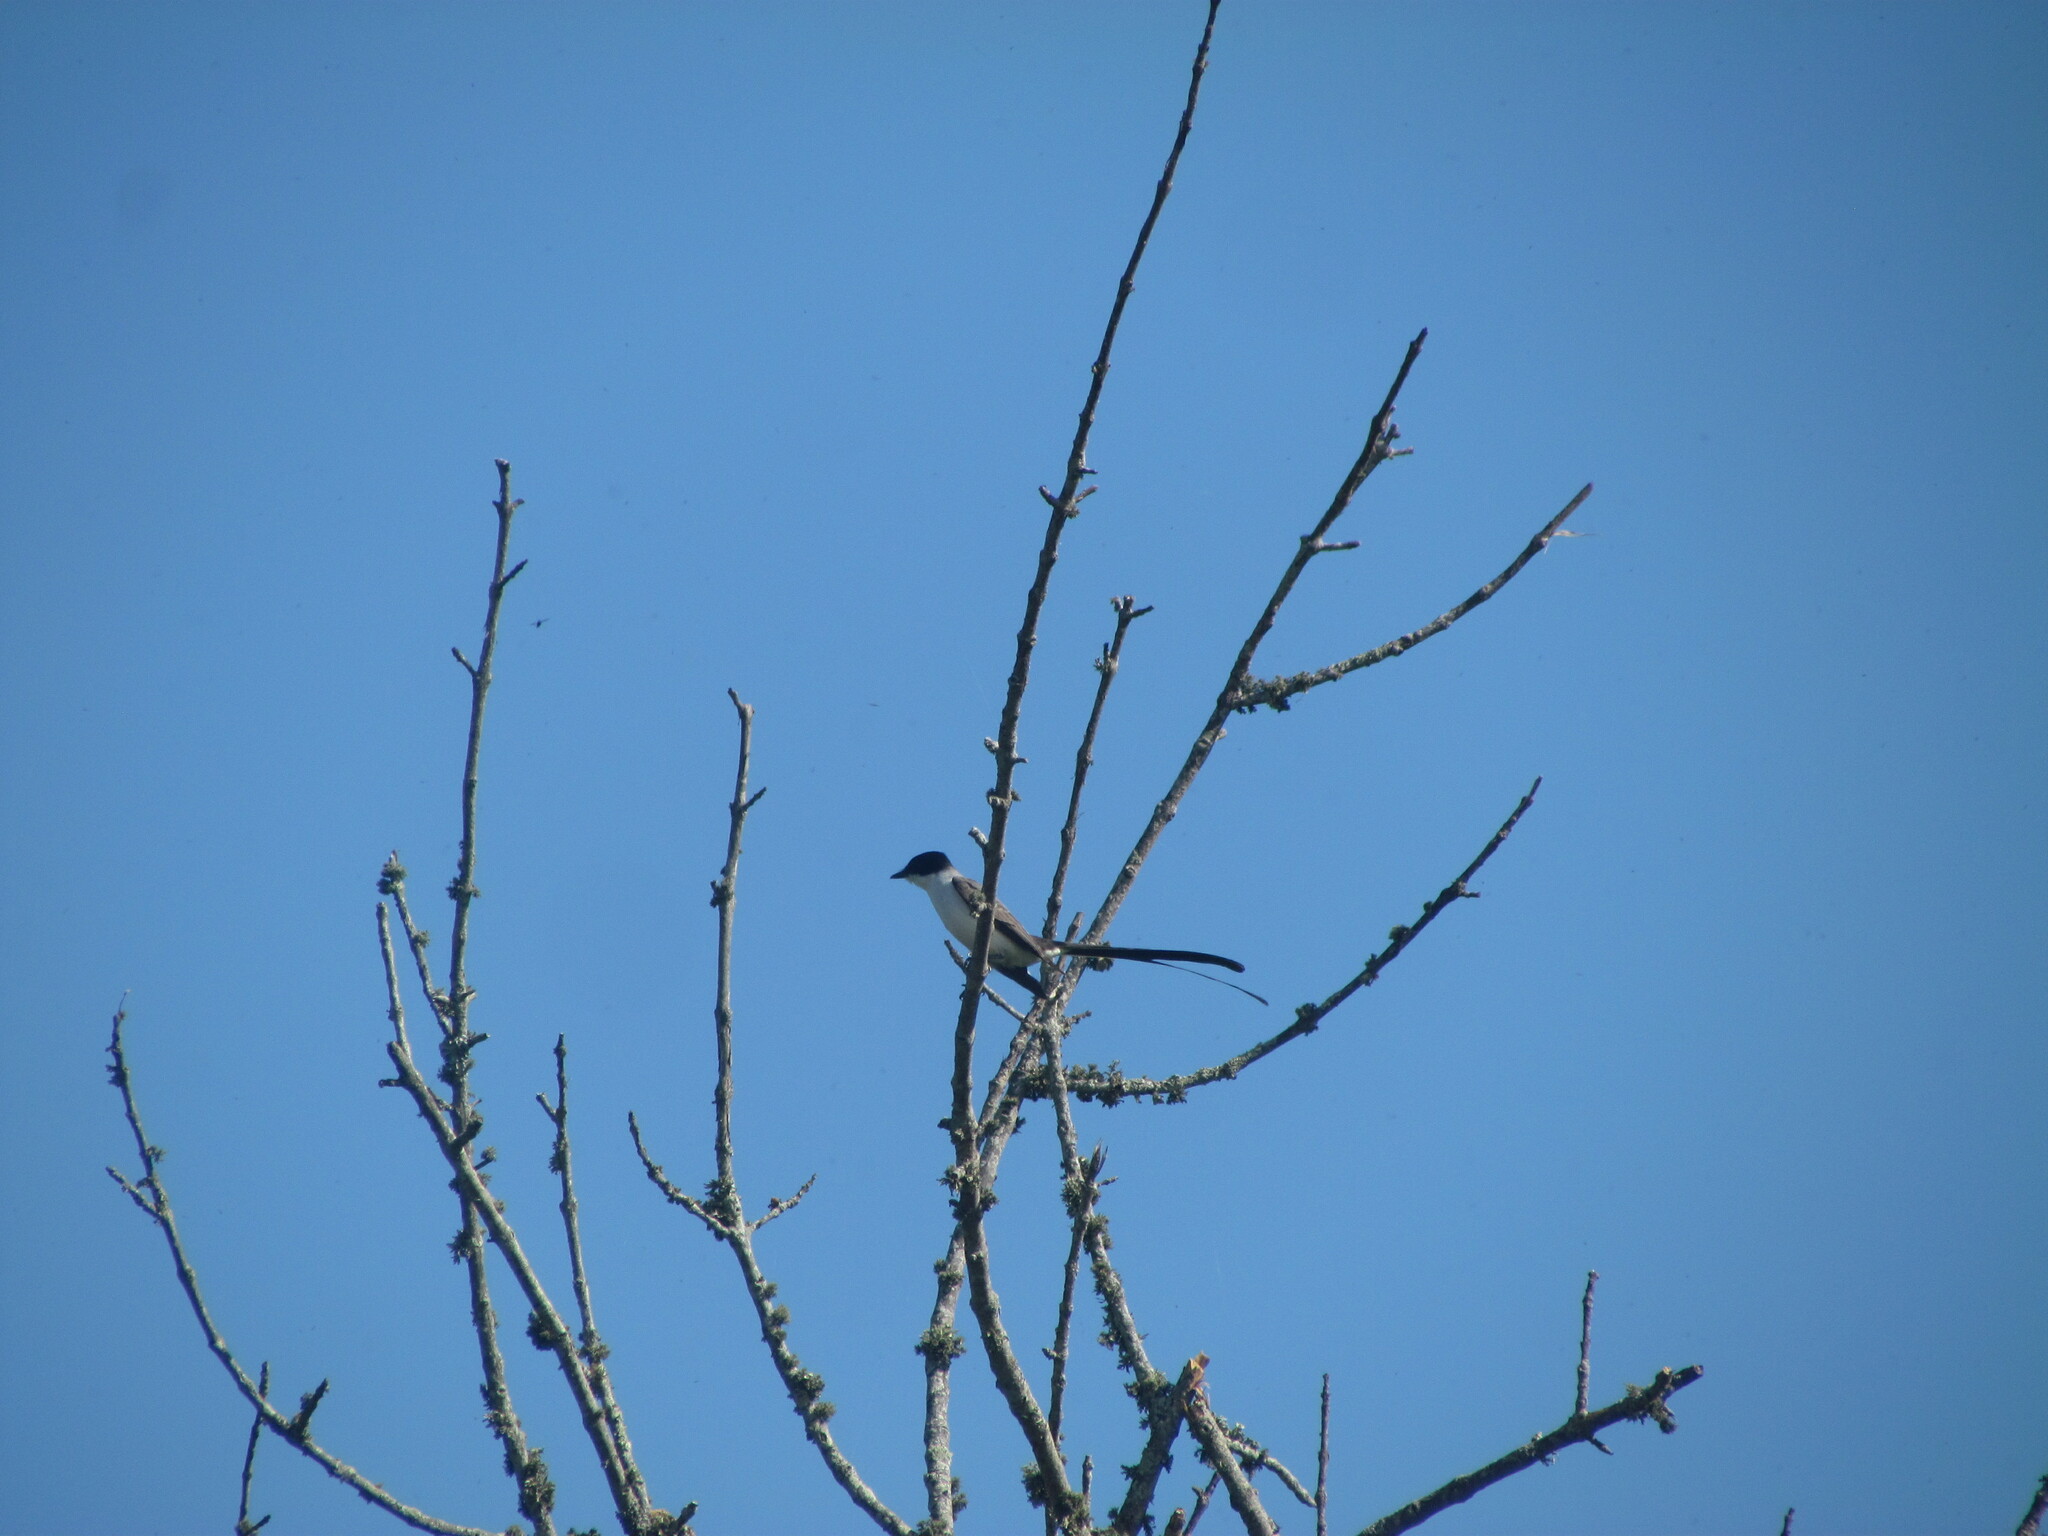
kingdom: Animalia
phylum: Chordata
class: Aves
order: Passeriformes
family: Tyrannidae
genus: Tyrannus
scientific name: Tyrannus savana
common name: Fork-tailed flycatcher
